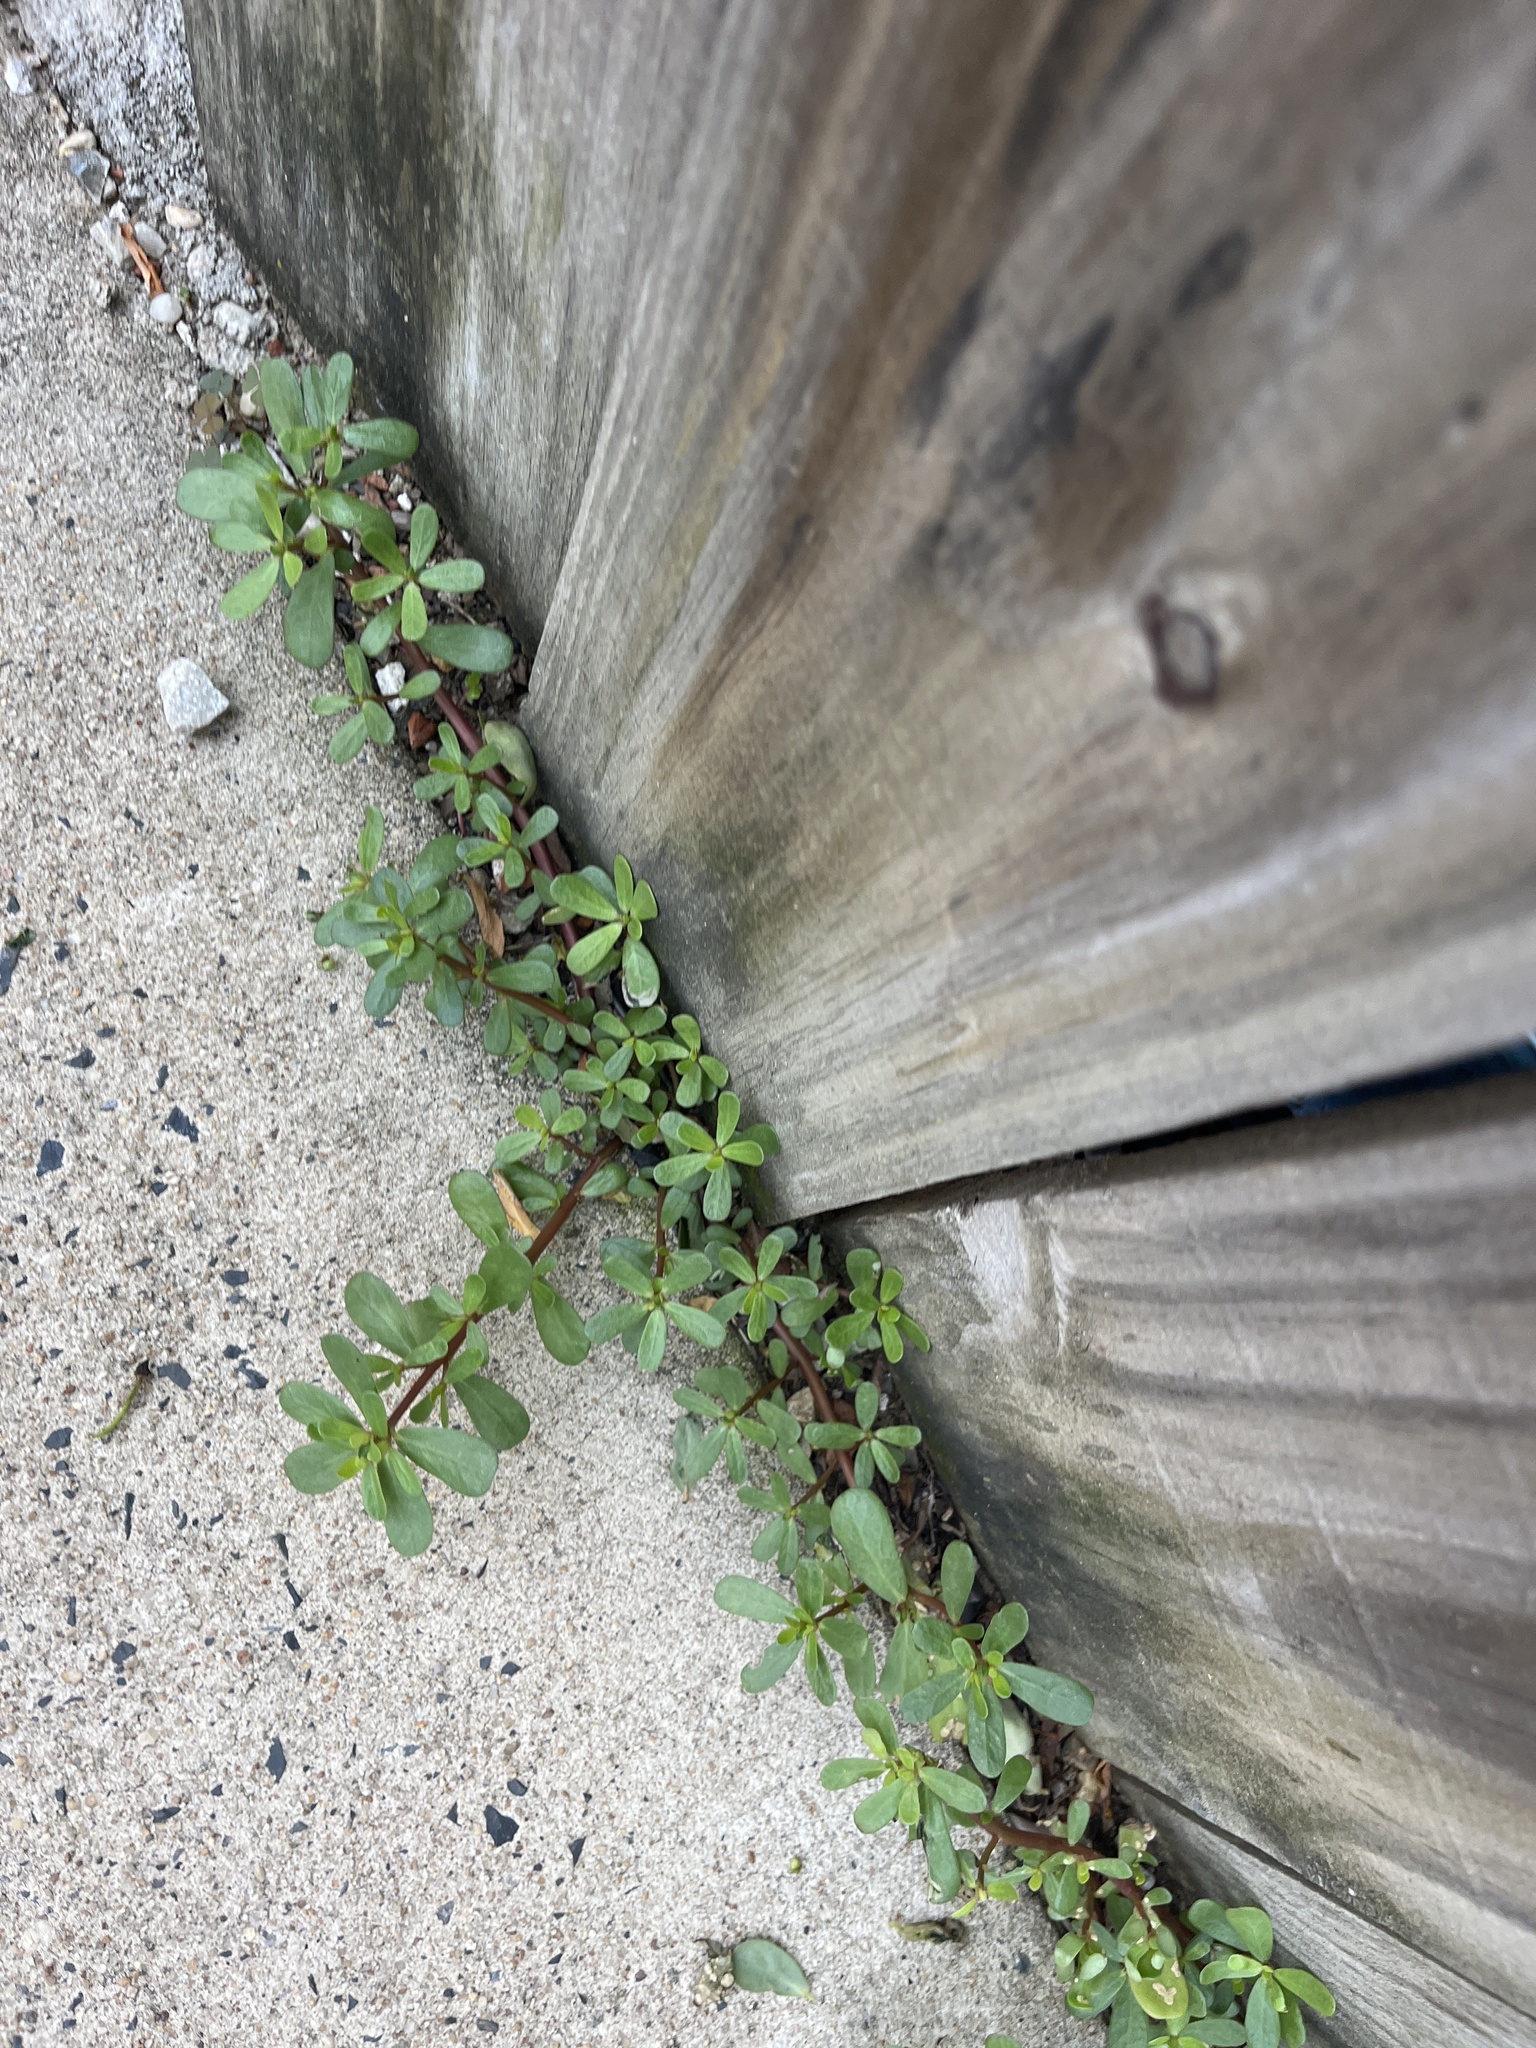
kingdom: Plantae
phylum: Tracheophyta
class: Magnoliopsida
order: Caryophyllales
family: Portulacaceae
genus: Portulaca
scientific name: Portulaca oleracea
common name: Common purslane
